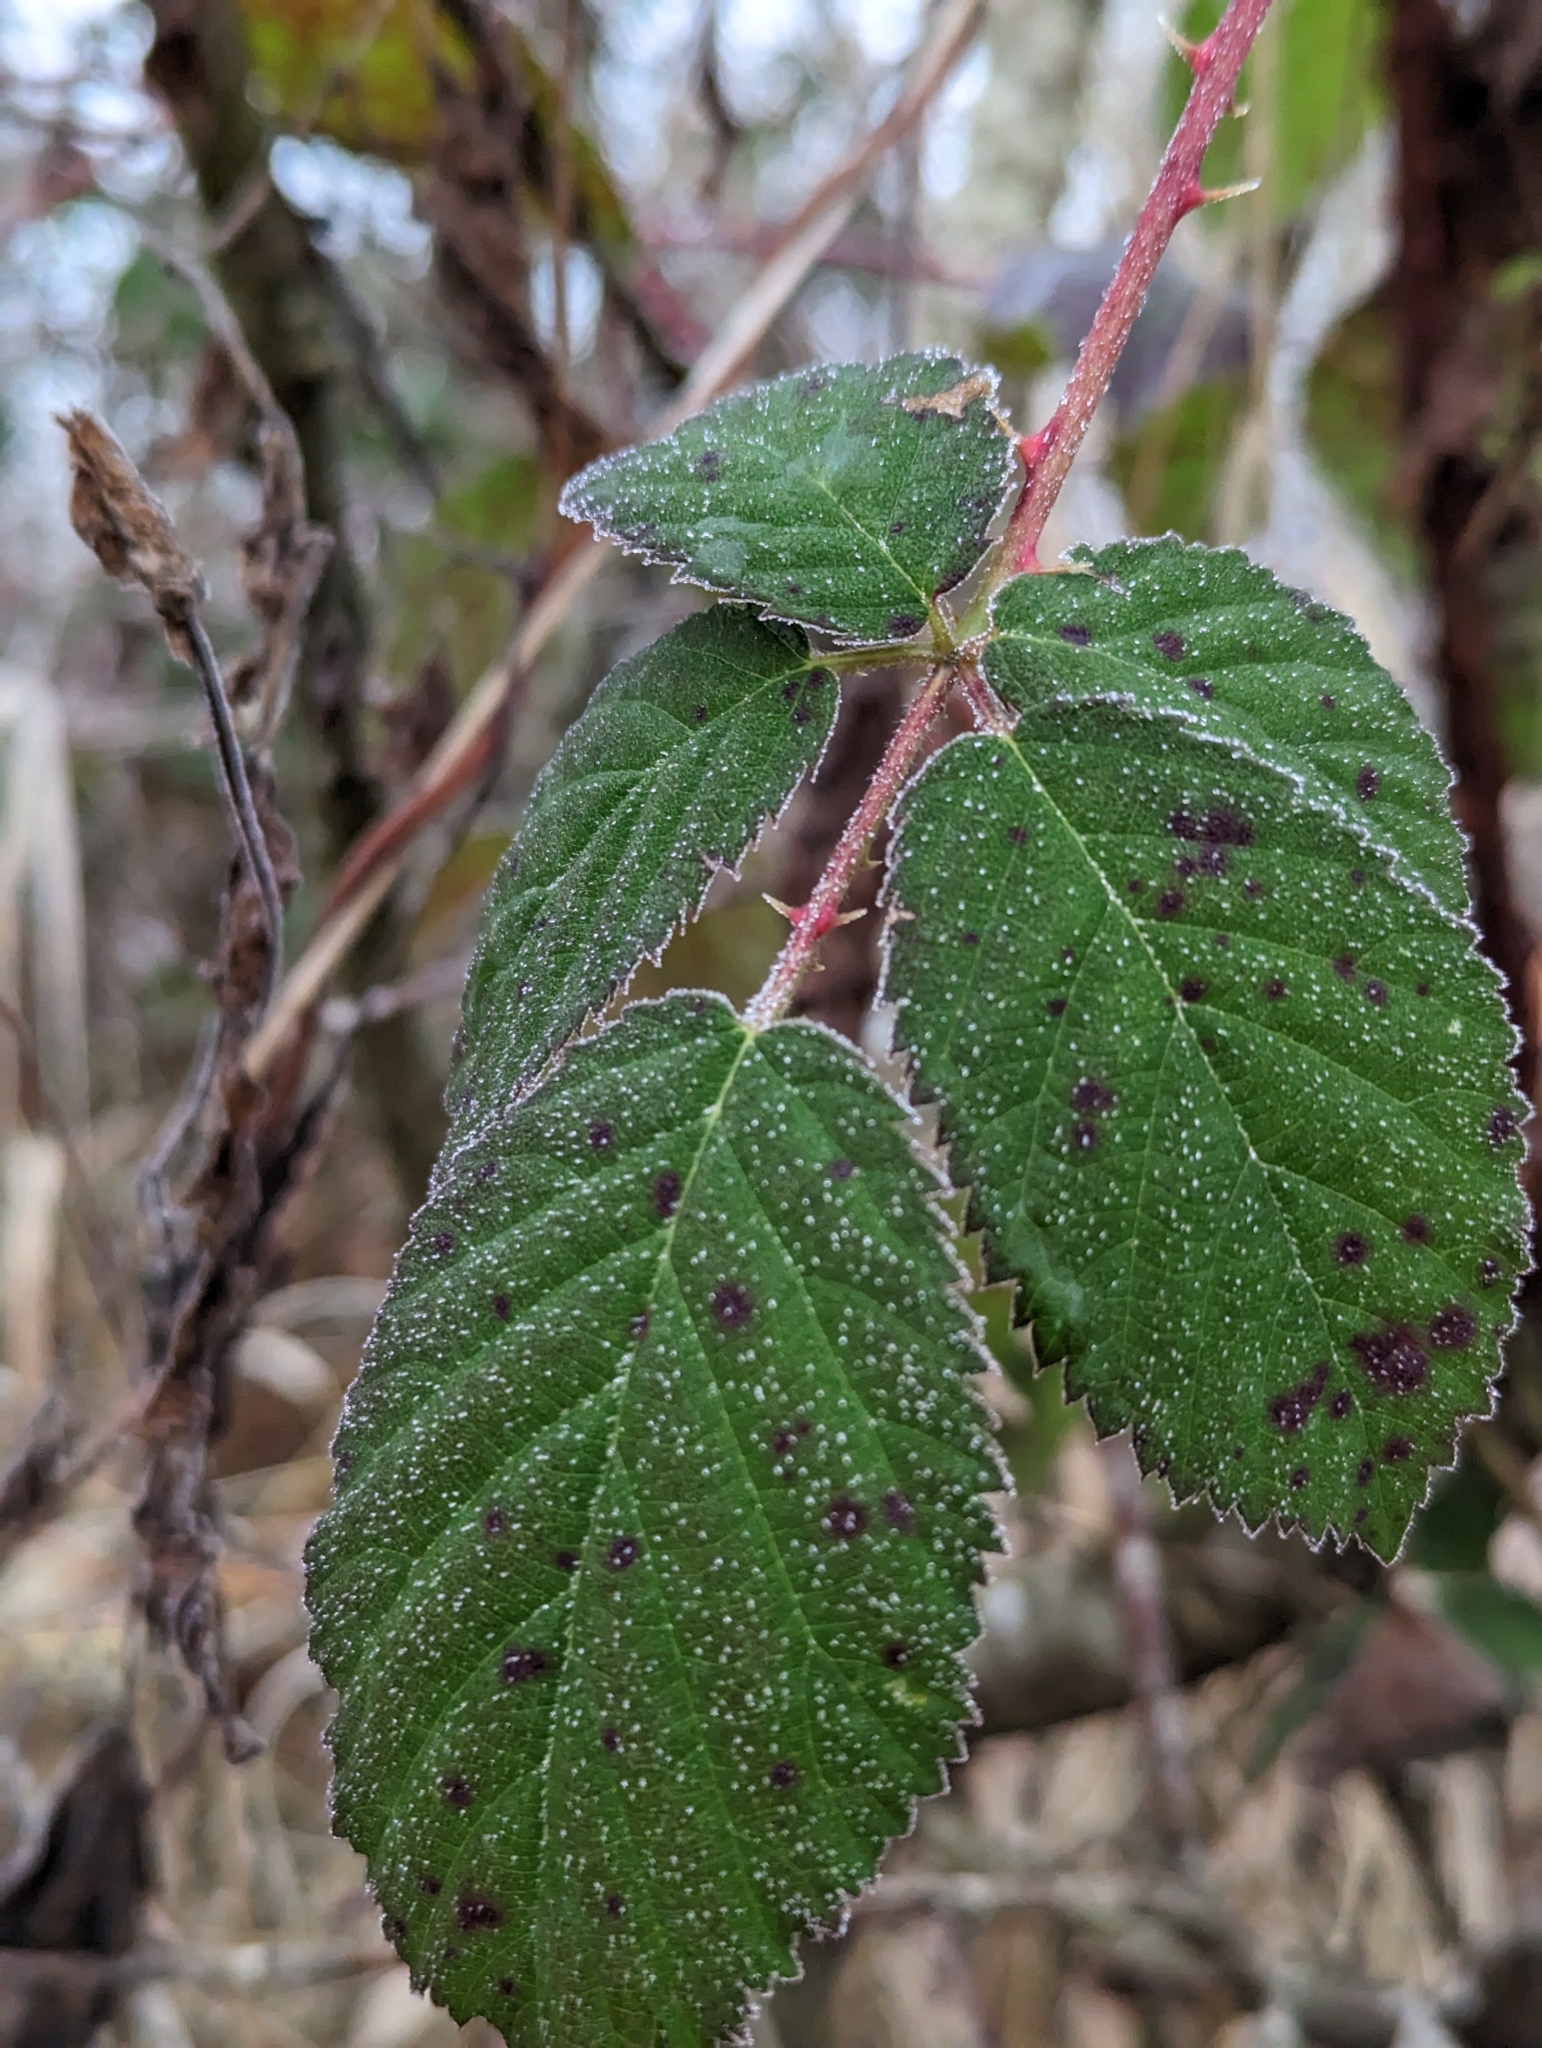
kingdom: Plantae
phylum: Tracheophyta
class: Magnoliopsida
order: Rosales
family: Rosaceae
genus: Rubus
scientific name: Rubus bifrons
